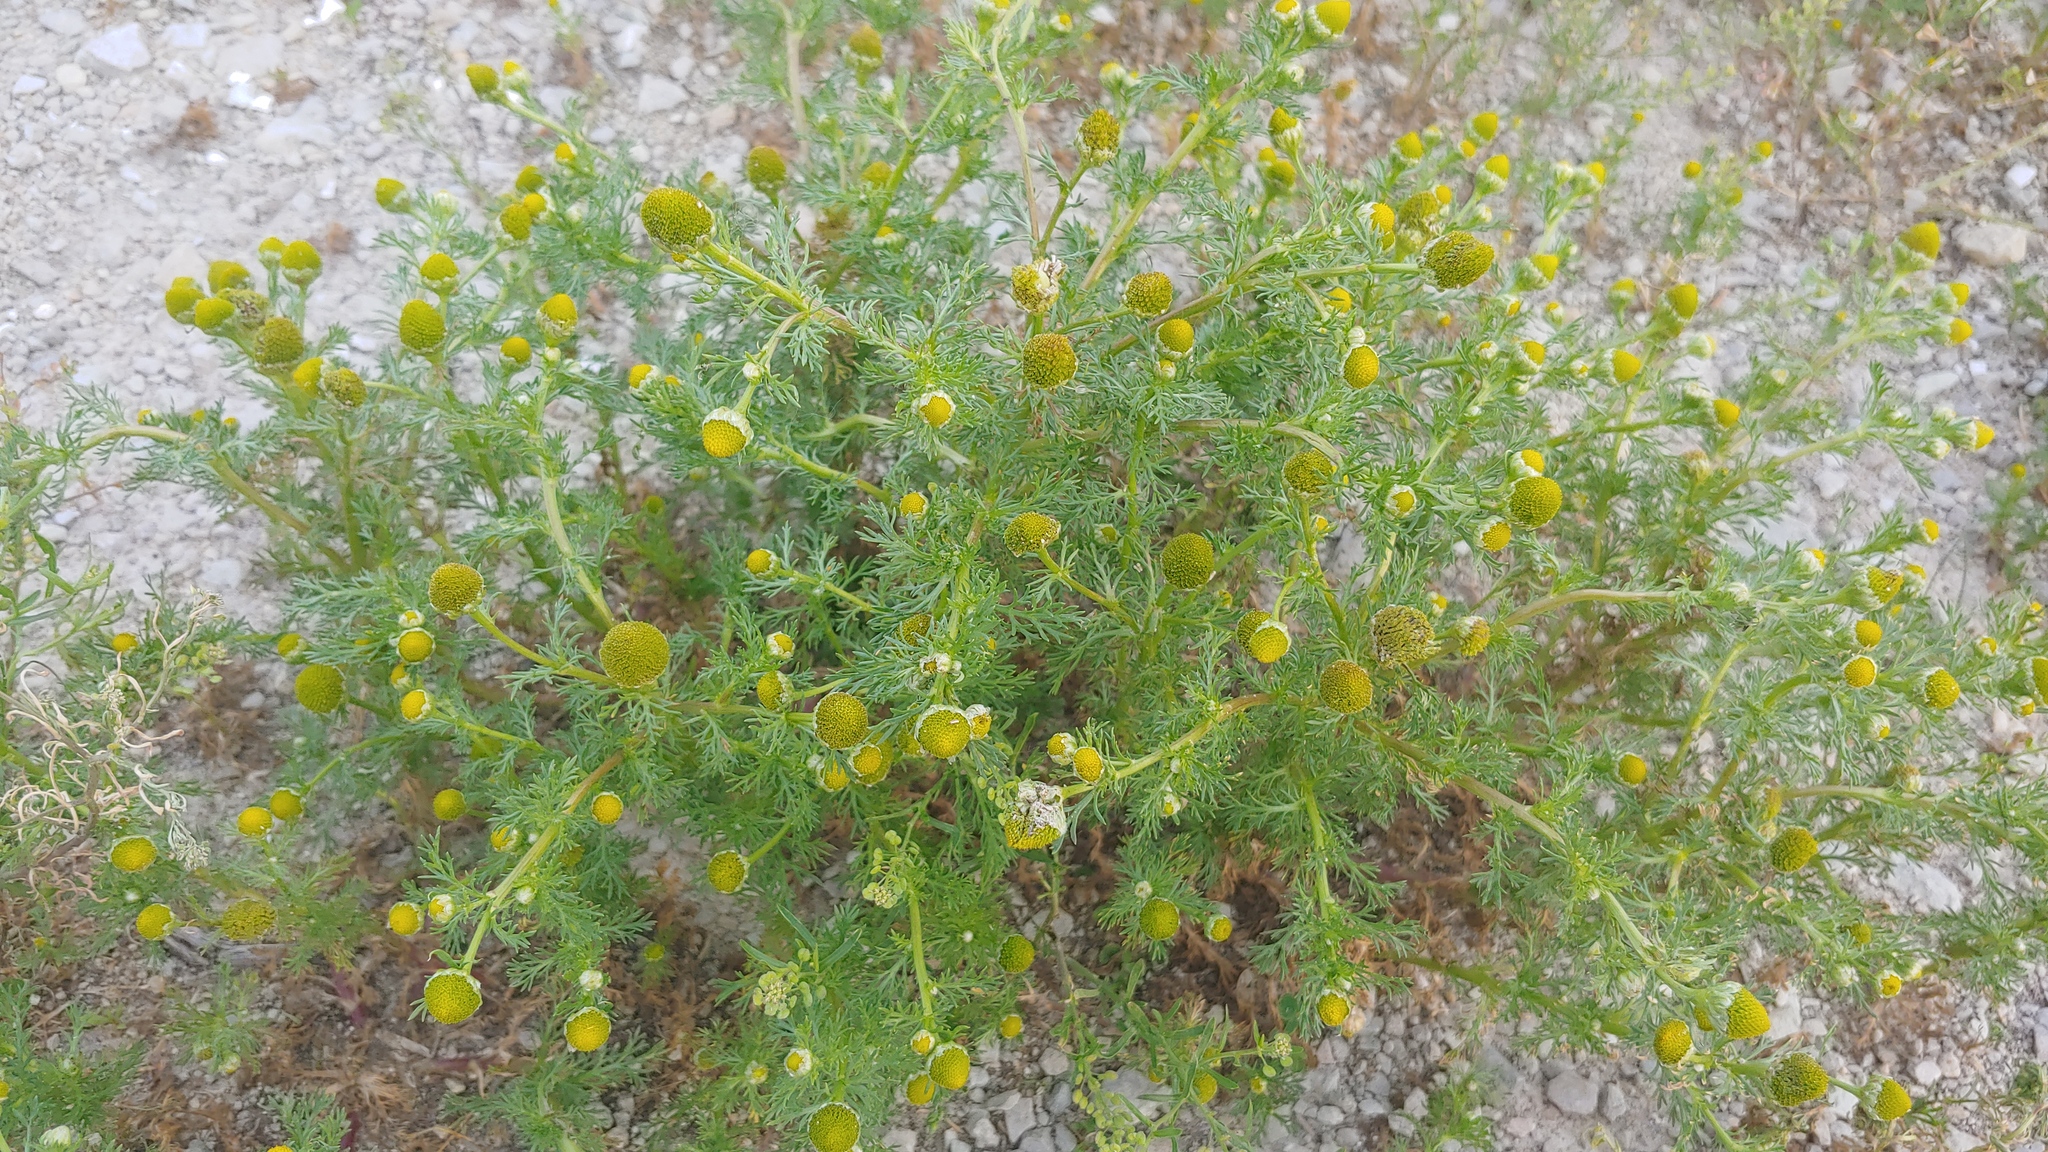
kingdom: Plantae
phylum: Tracheophyta
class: Magnoliopsida
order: Asterales
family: Asteraceae
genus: Matricaria
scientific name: Matricaria discoidea
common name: Disc mayweed
